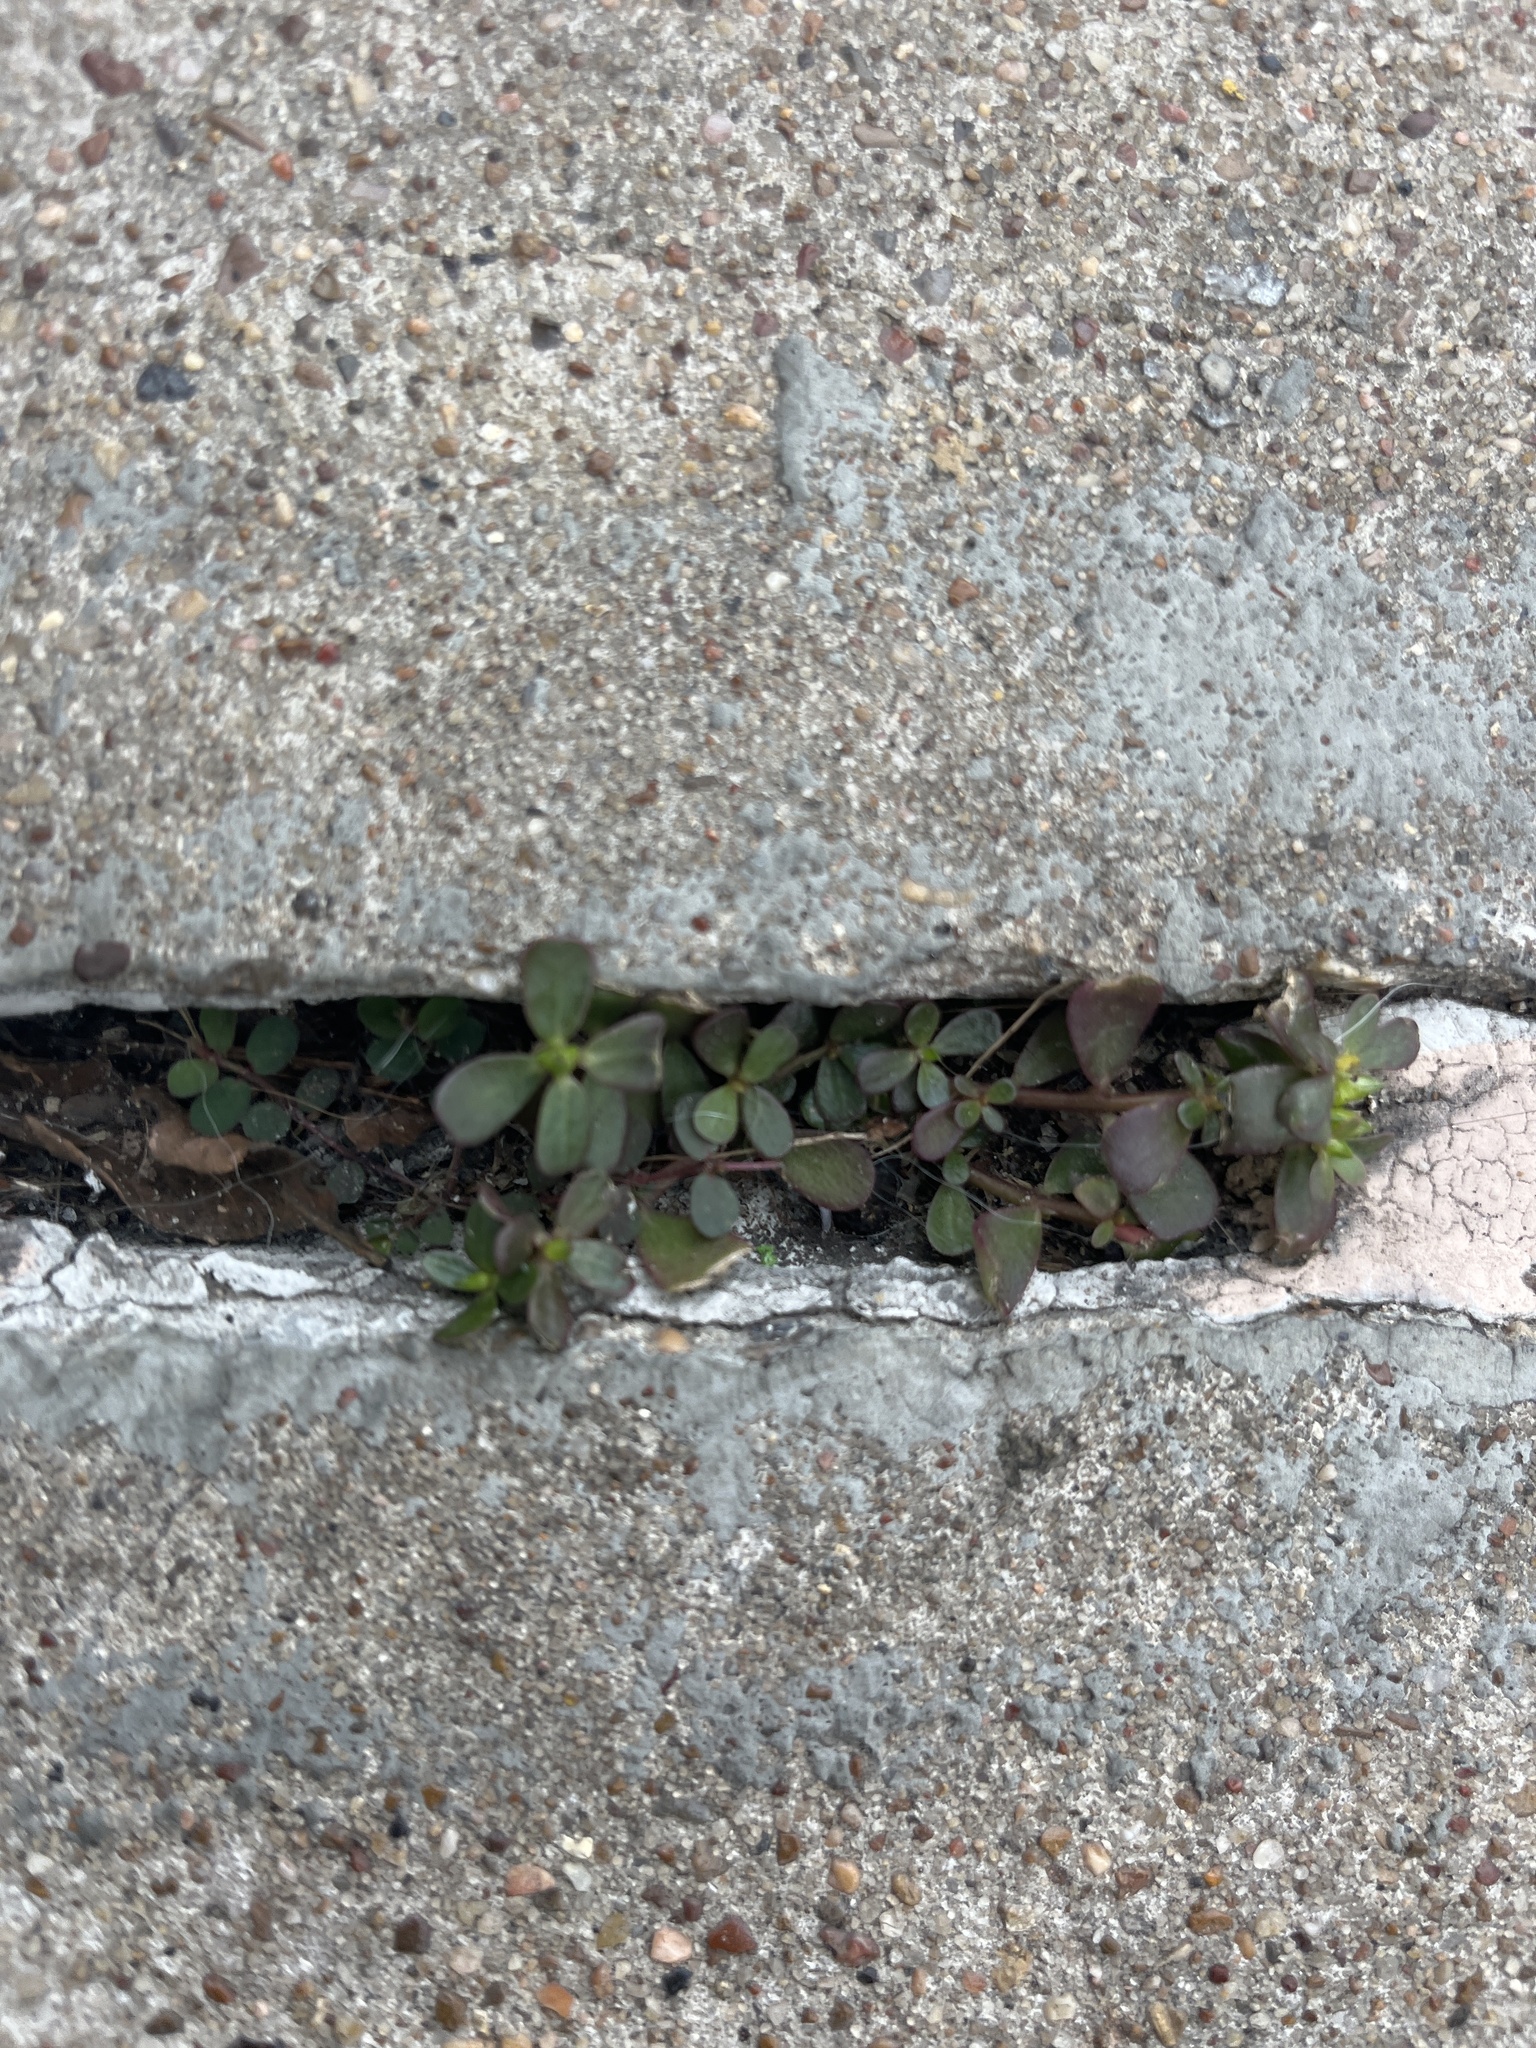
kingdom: Plantae
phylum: Tracheophyta
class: Magnoliopsida
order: Caryophyllales
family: Portulacaceae
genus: Portulaca
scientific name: Portulaca oleracea
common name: Common purslane
